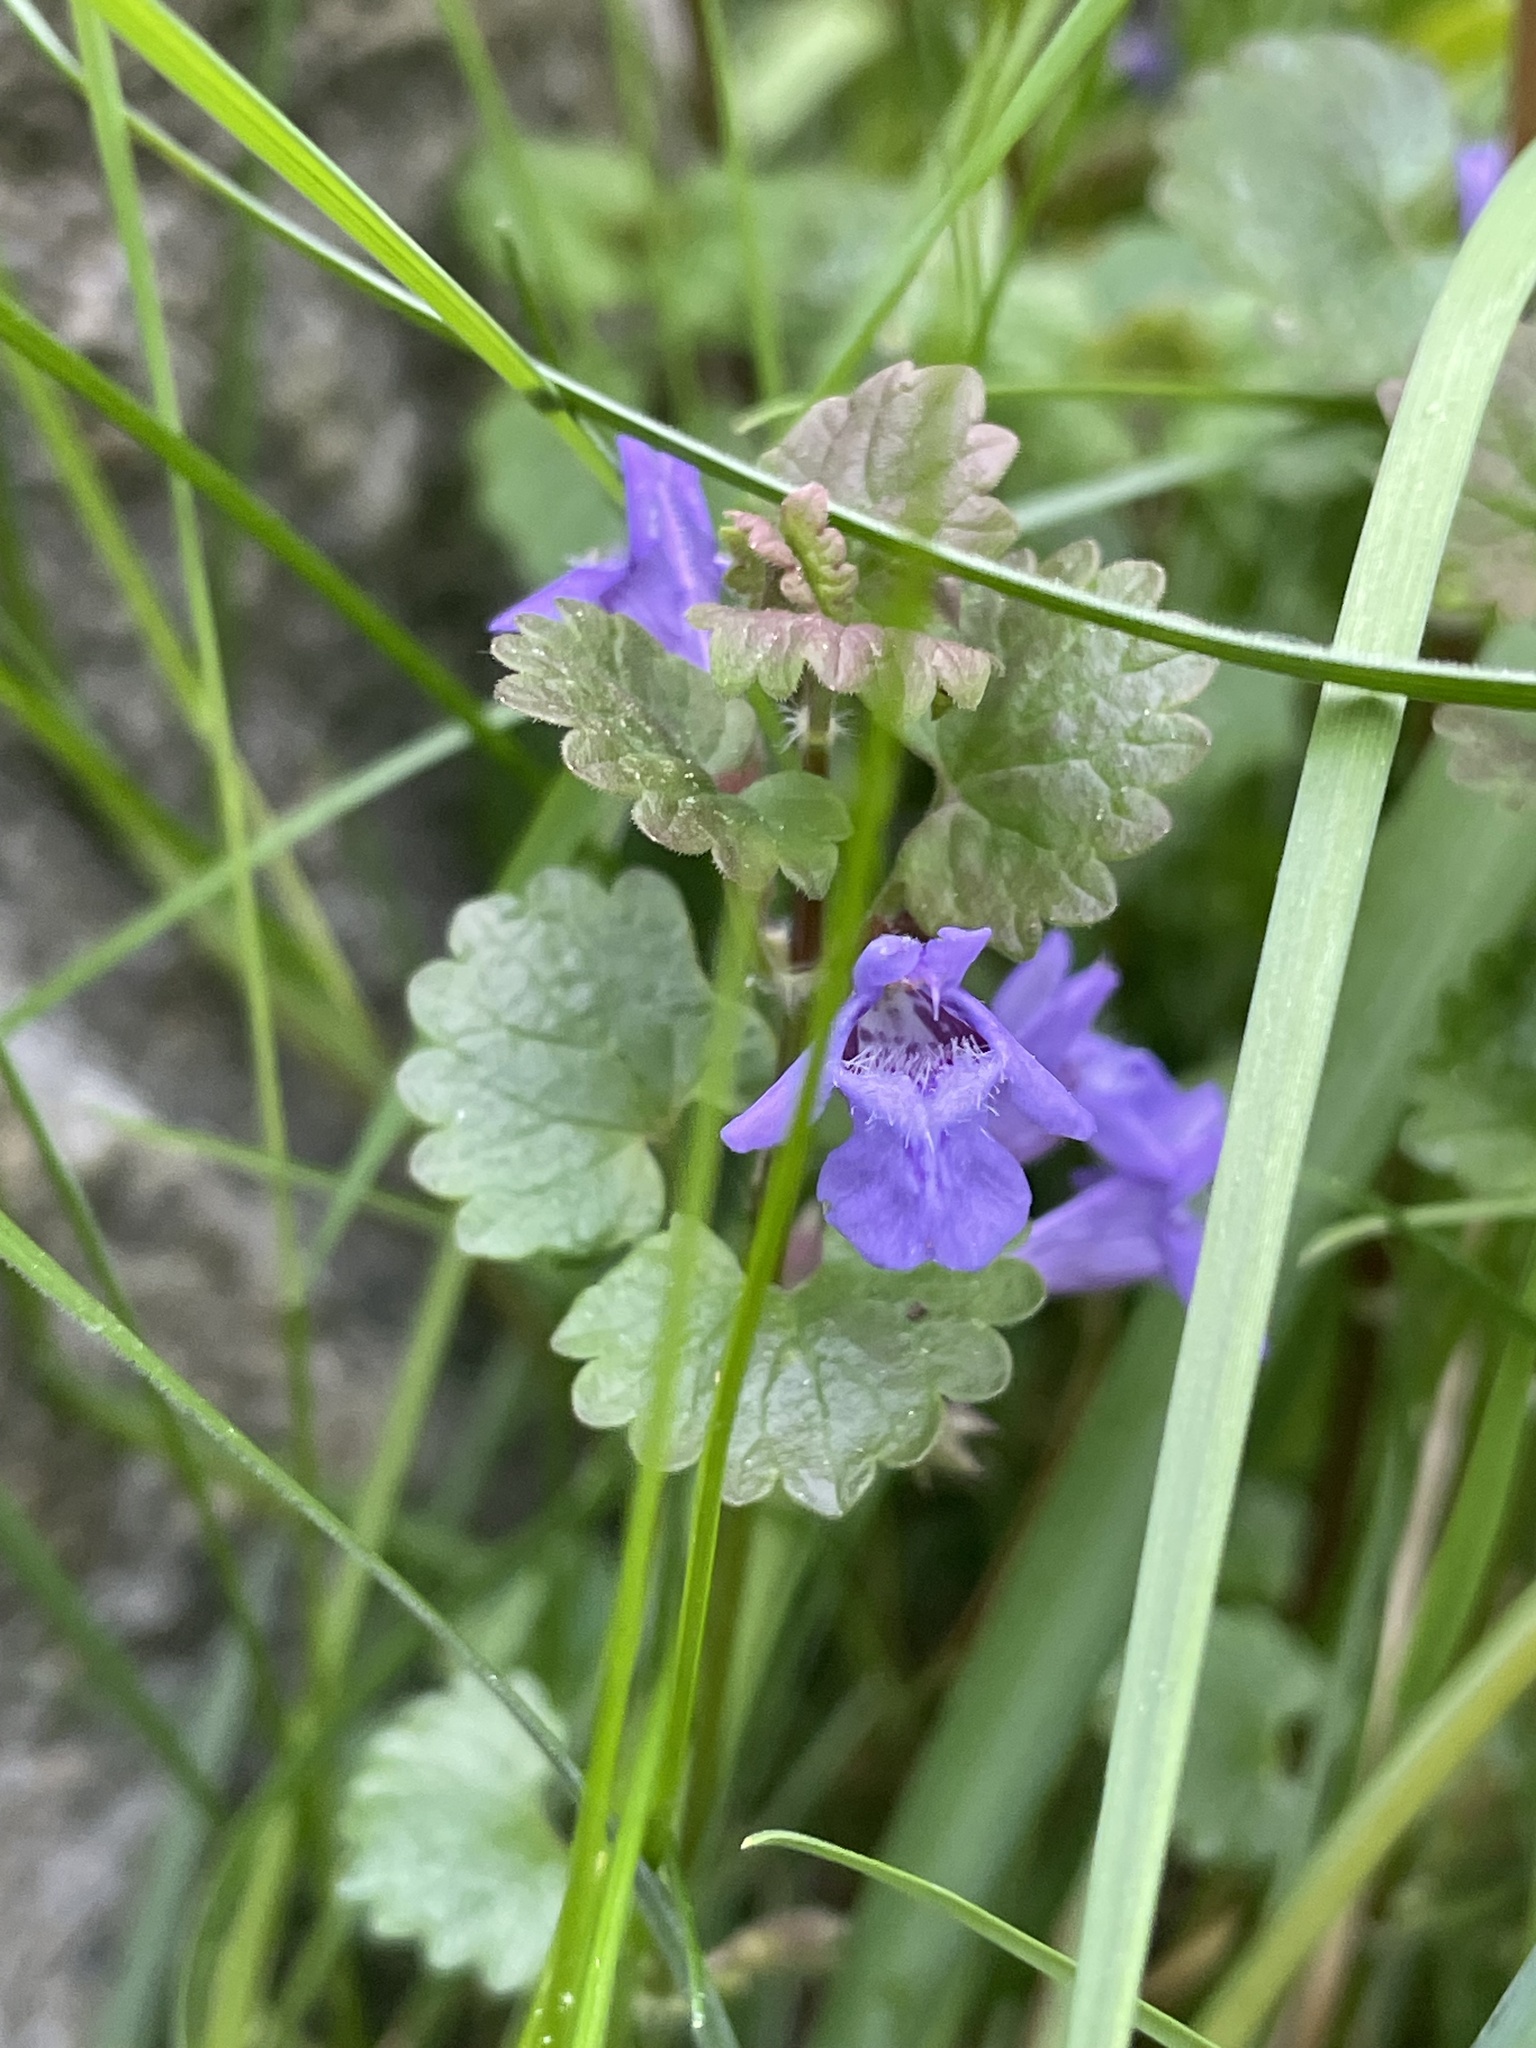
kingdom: Plantae
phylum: Tracheophyta
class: Magnoliopsida
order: Lamiales
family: Lamiaceae
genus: Glechoma
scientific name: Glechoma hederacea
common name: Ground ivy
